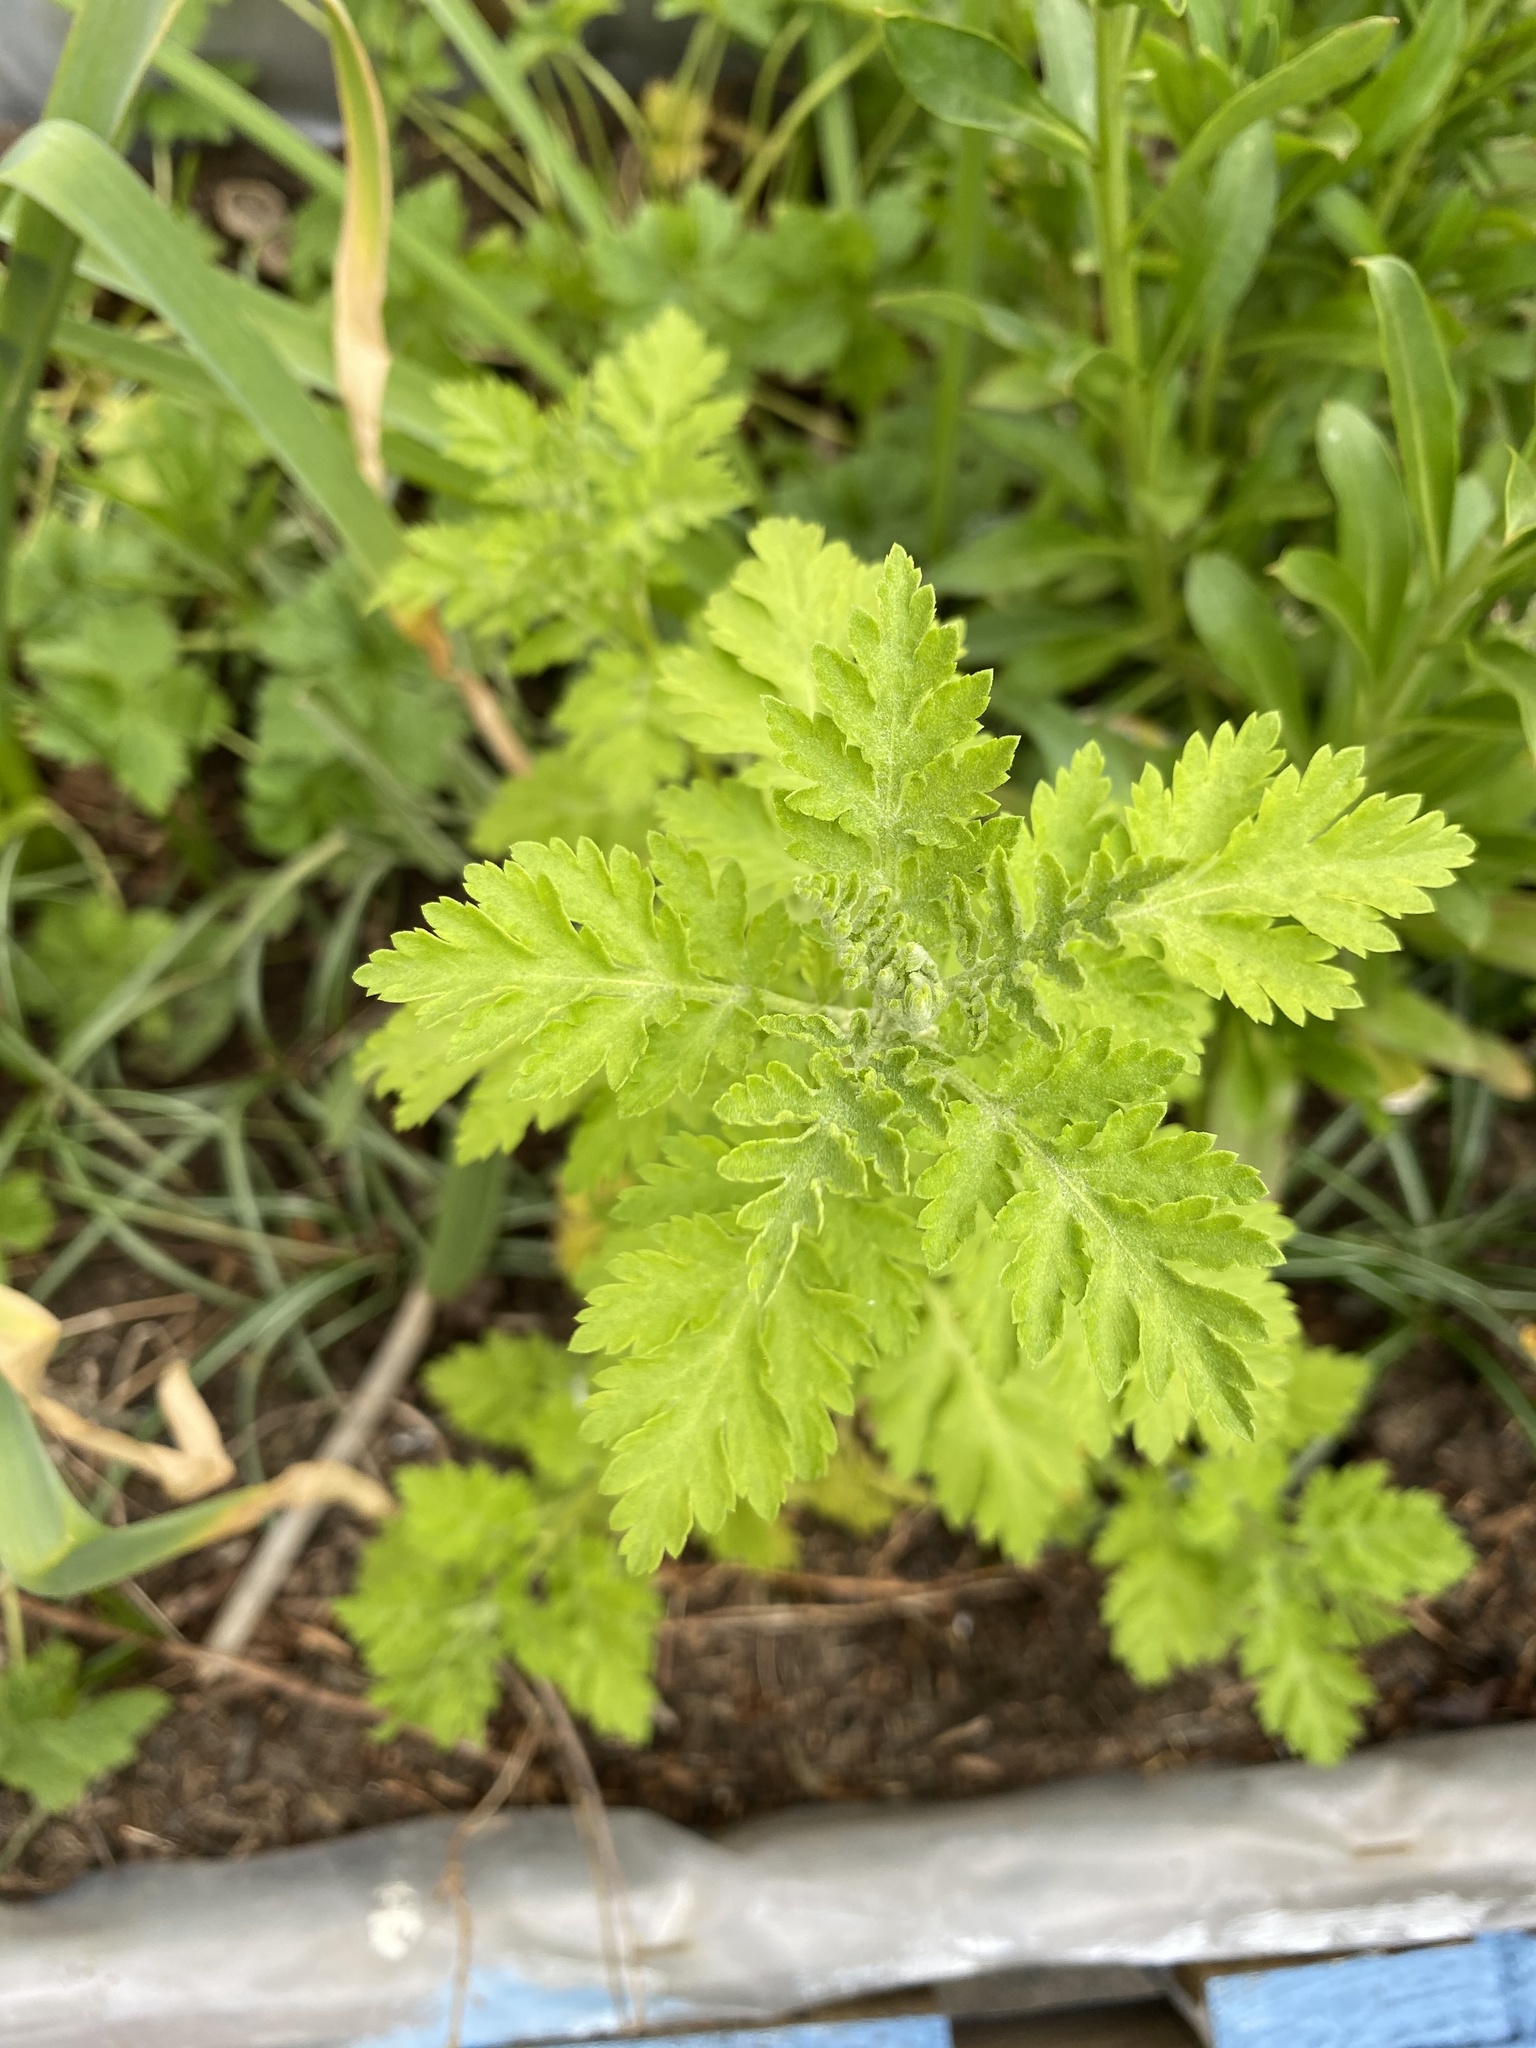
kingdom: Plantae
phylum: Tracheophyta
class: Magnoliopsida
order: Asterales
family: Asteraceae
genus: Tanacetum
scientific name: Tanacetum parthenium
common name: Feverfew
